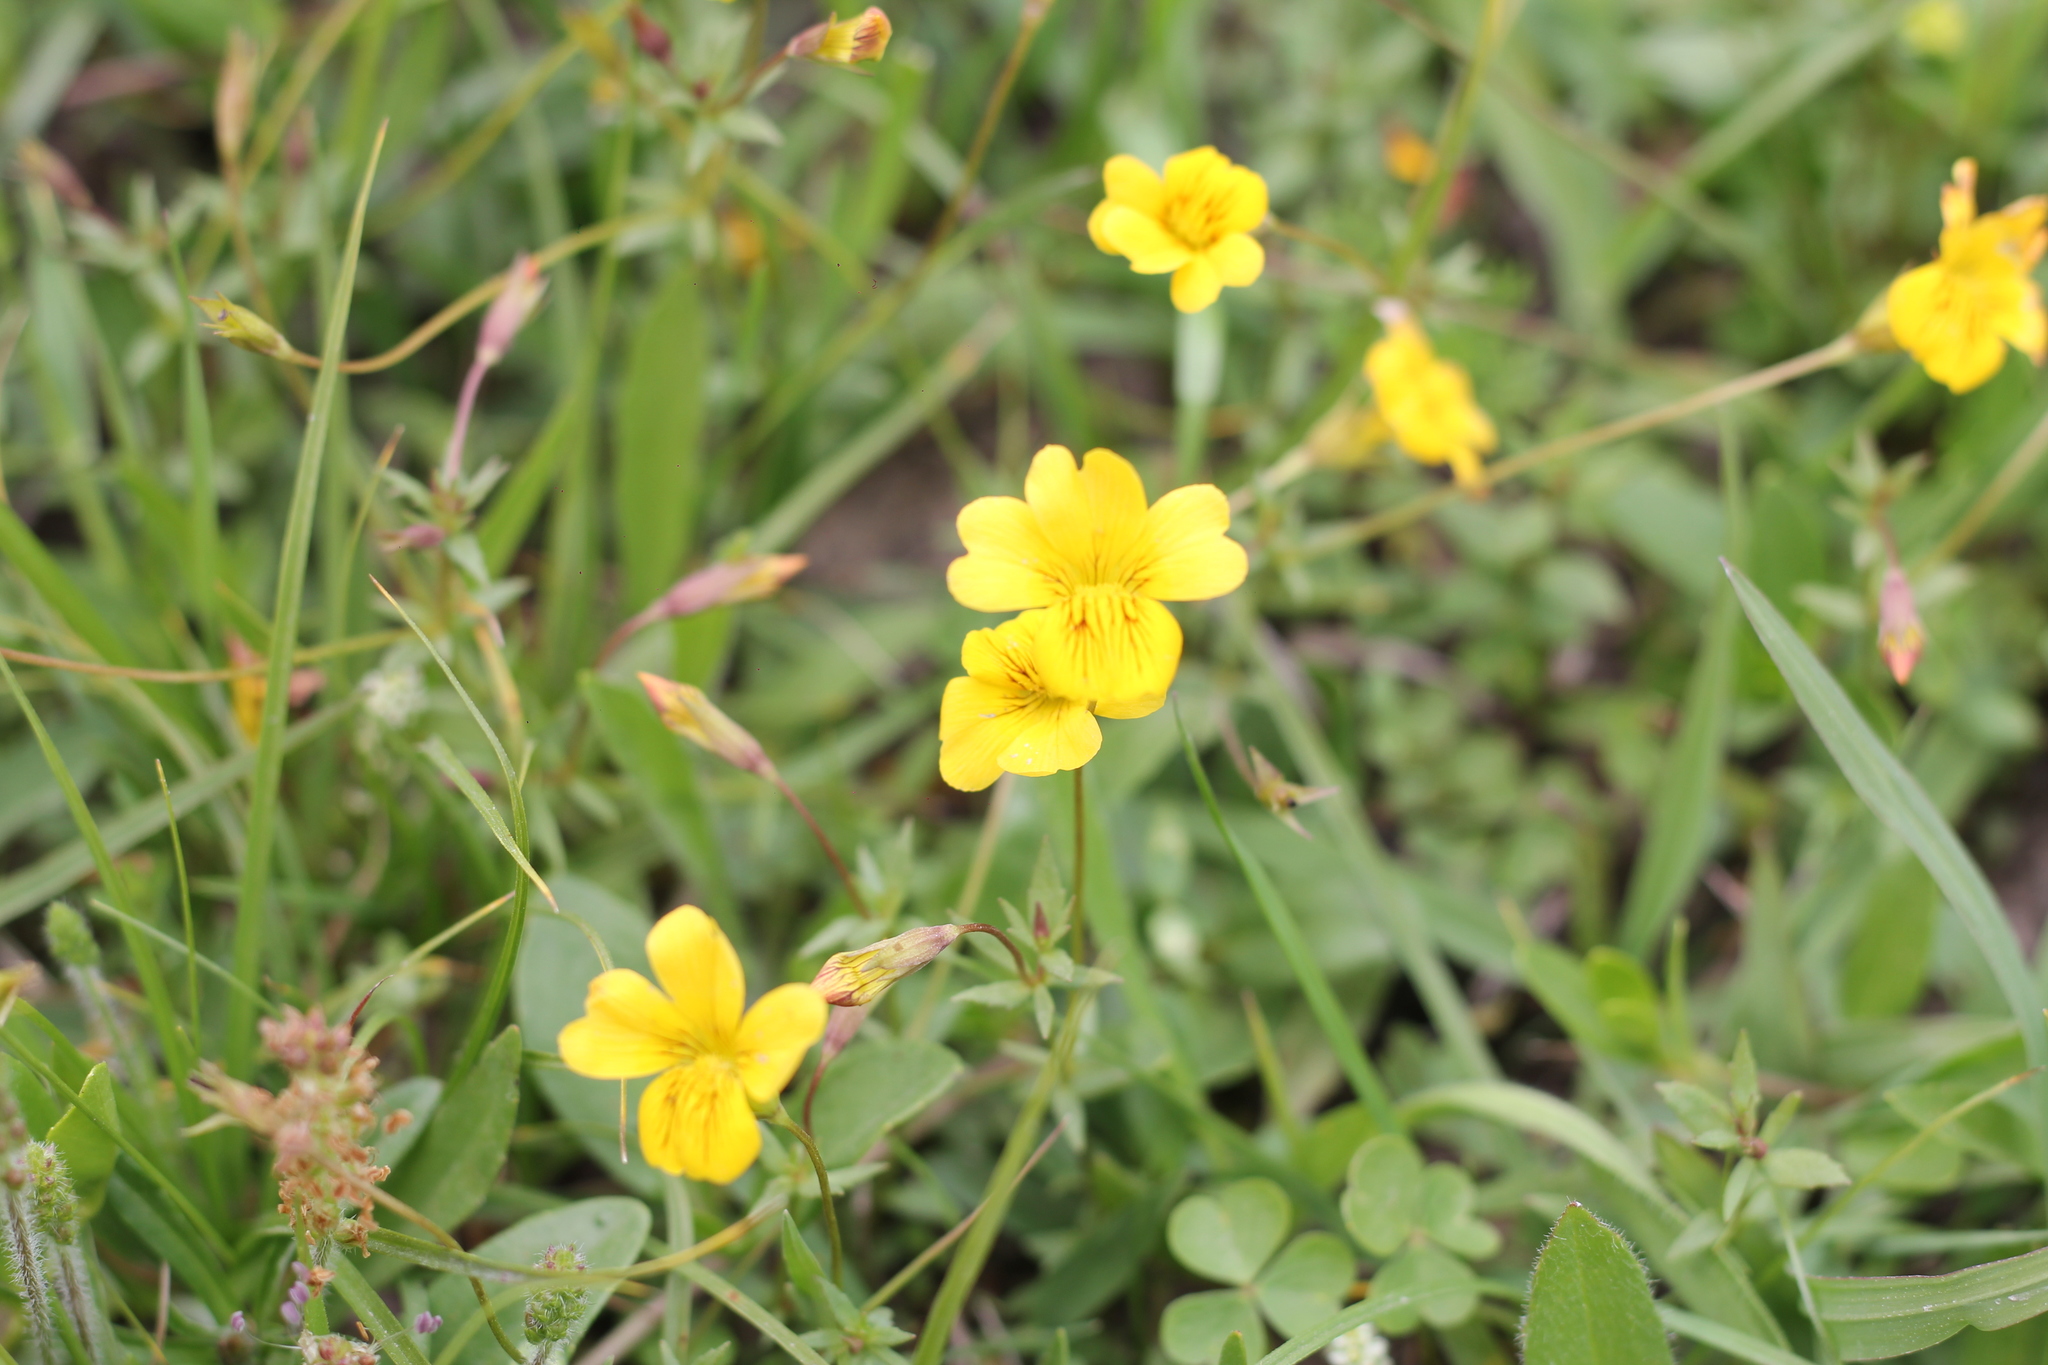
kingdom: Plantae
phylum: Tracheophyta
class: Magnoliopsida
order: Lamiales
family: Plantaginaceae
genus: Mecardonia
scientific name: Mecardonia procumbens
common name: Baby jump-up
